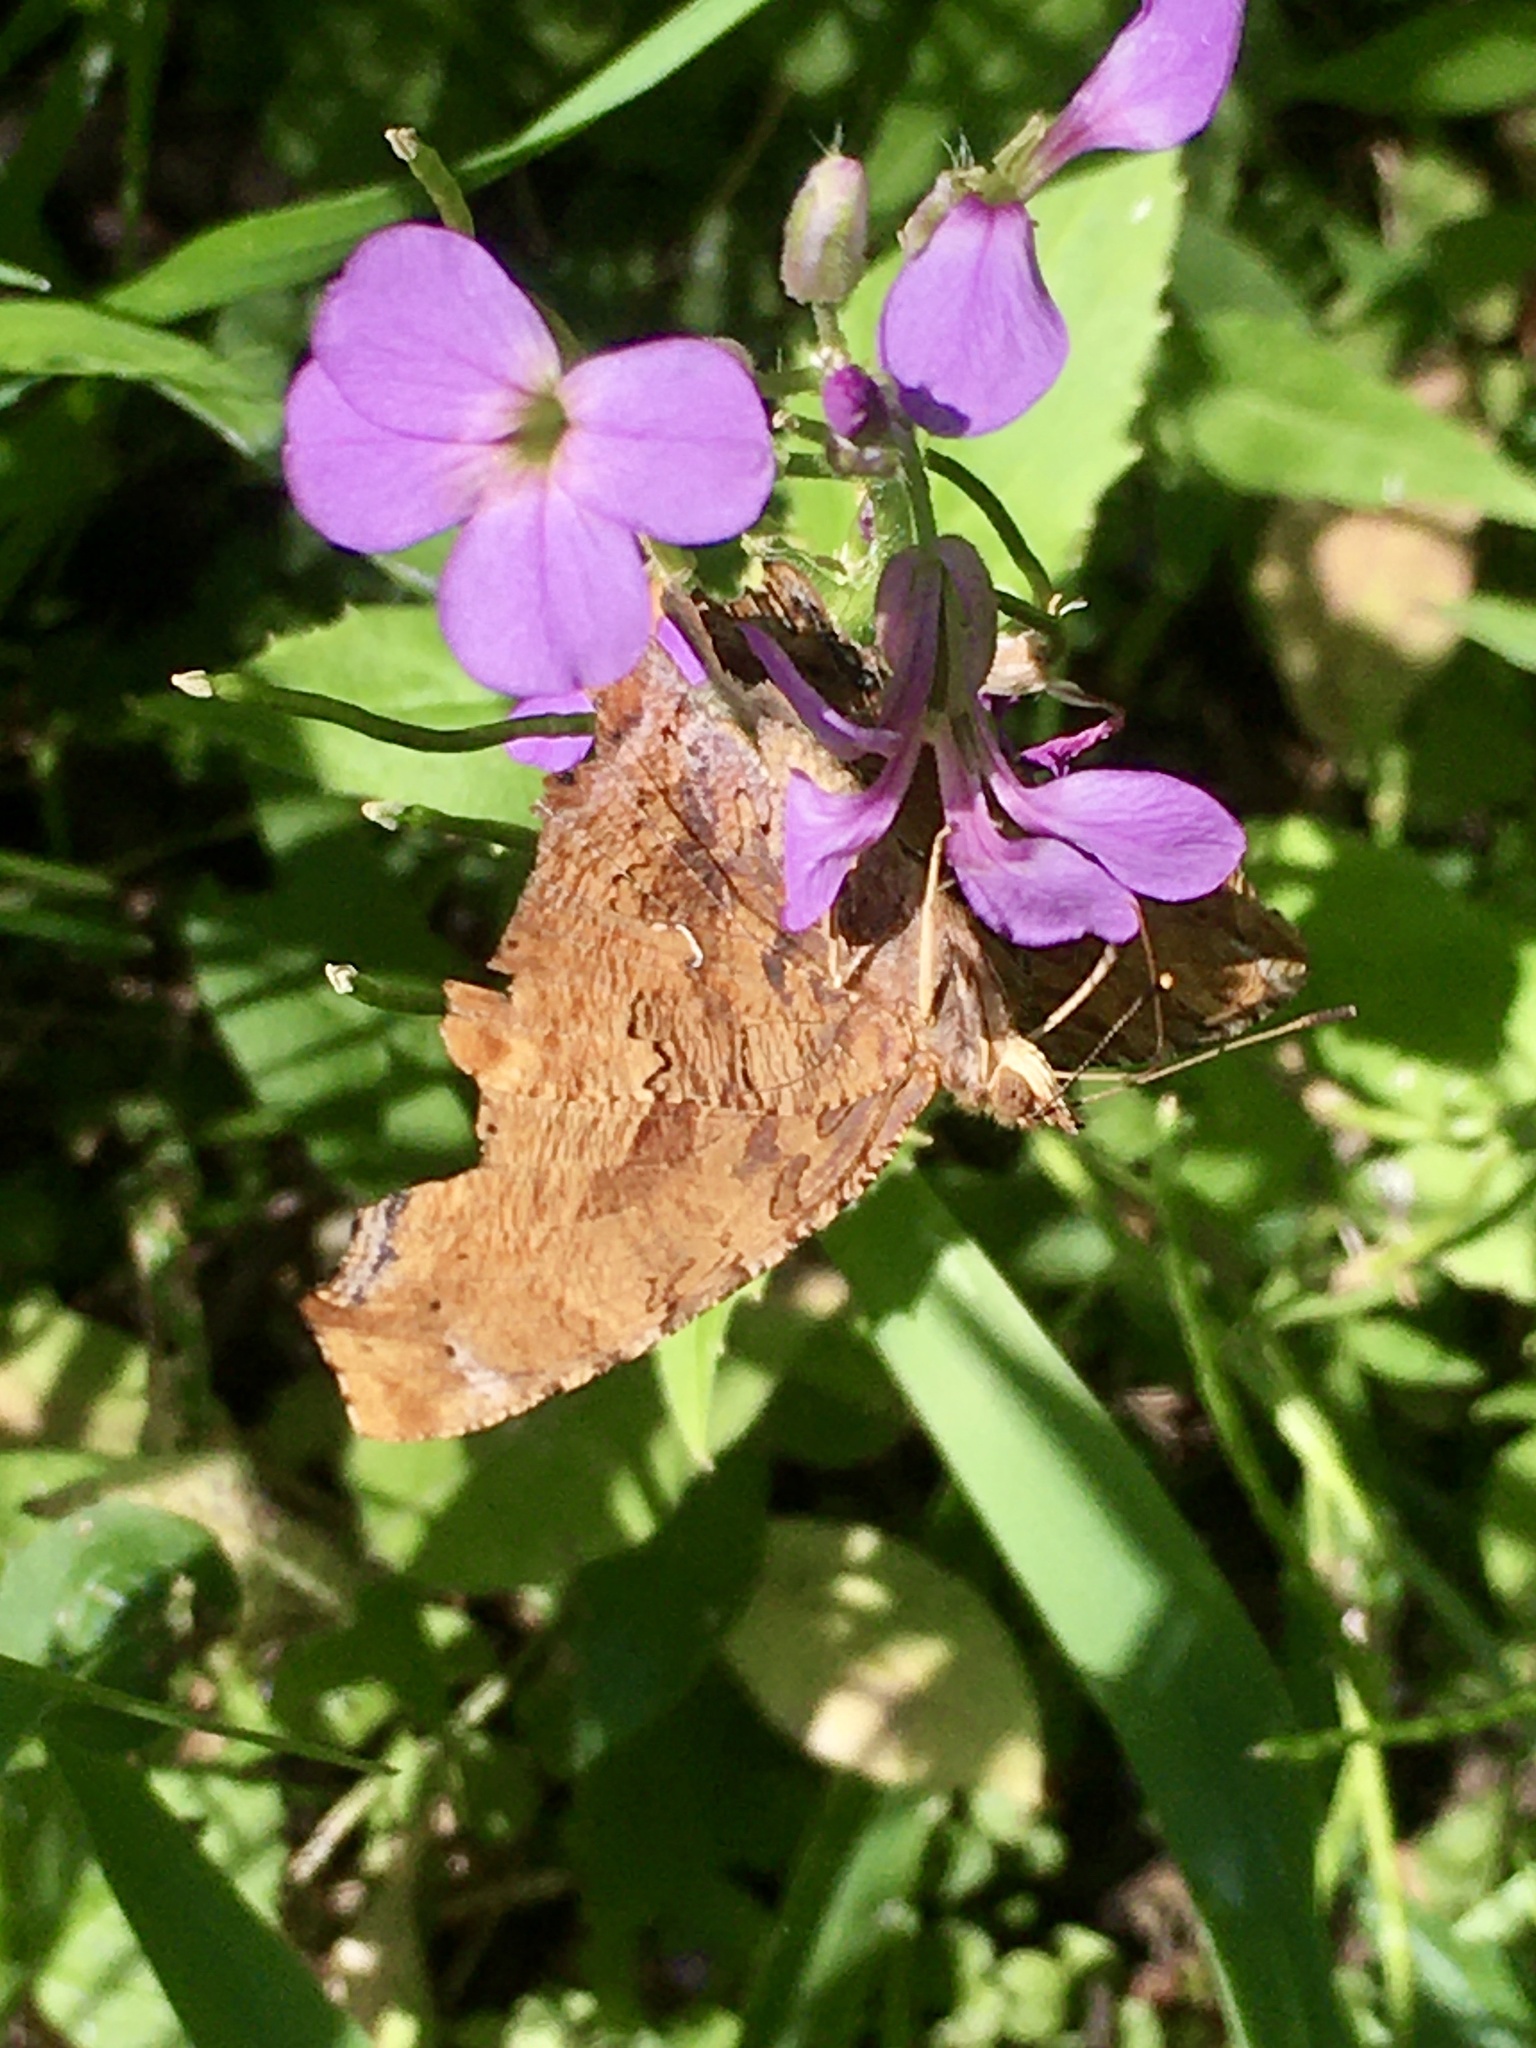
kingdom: Animalia
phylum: Arthropoda
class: Insecta
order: Lepidoptera
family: Nymphalidae
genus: Polygonia
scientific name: Polygonia interrogationis
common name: Question mark
